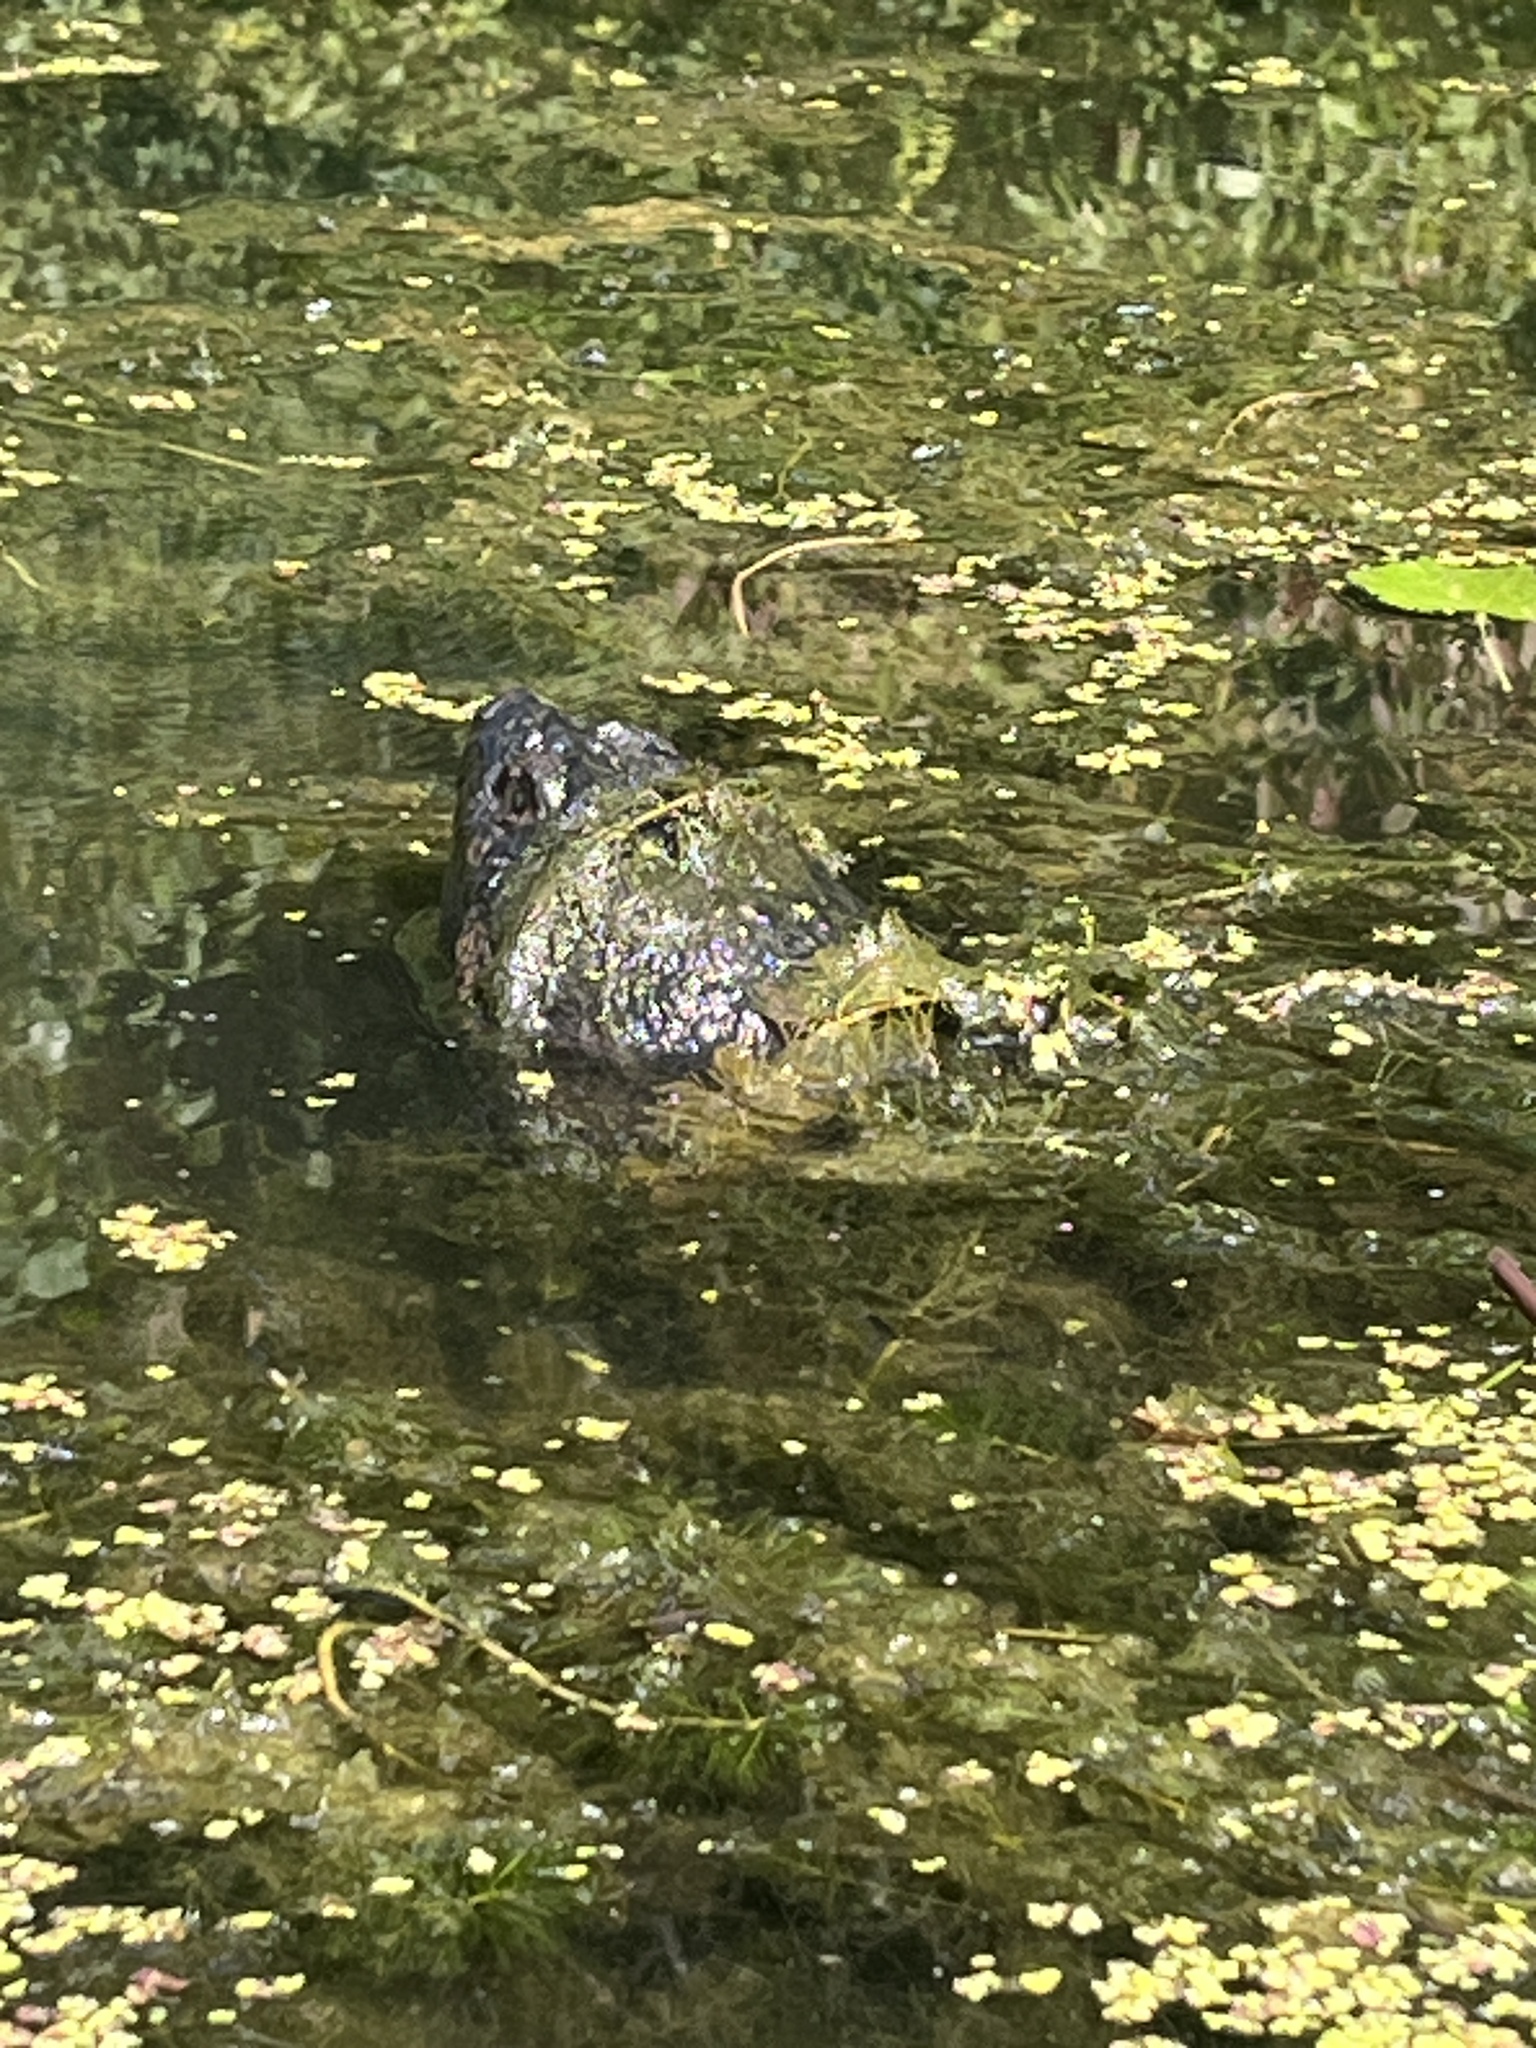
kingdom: Animalia
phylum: Chordata
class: Testudines
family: Chelydridae
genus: Chelydra
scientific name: Chelydra serpentina
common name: Common snapping turtle
